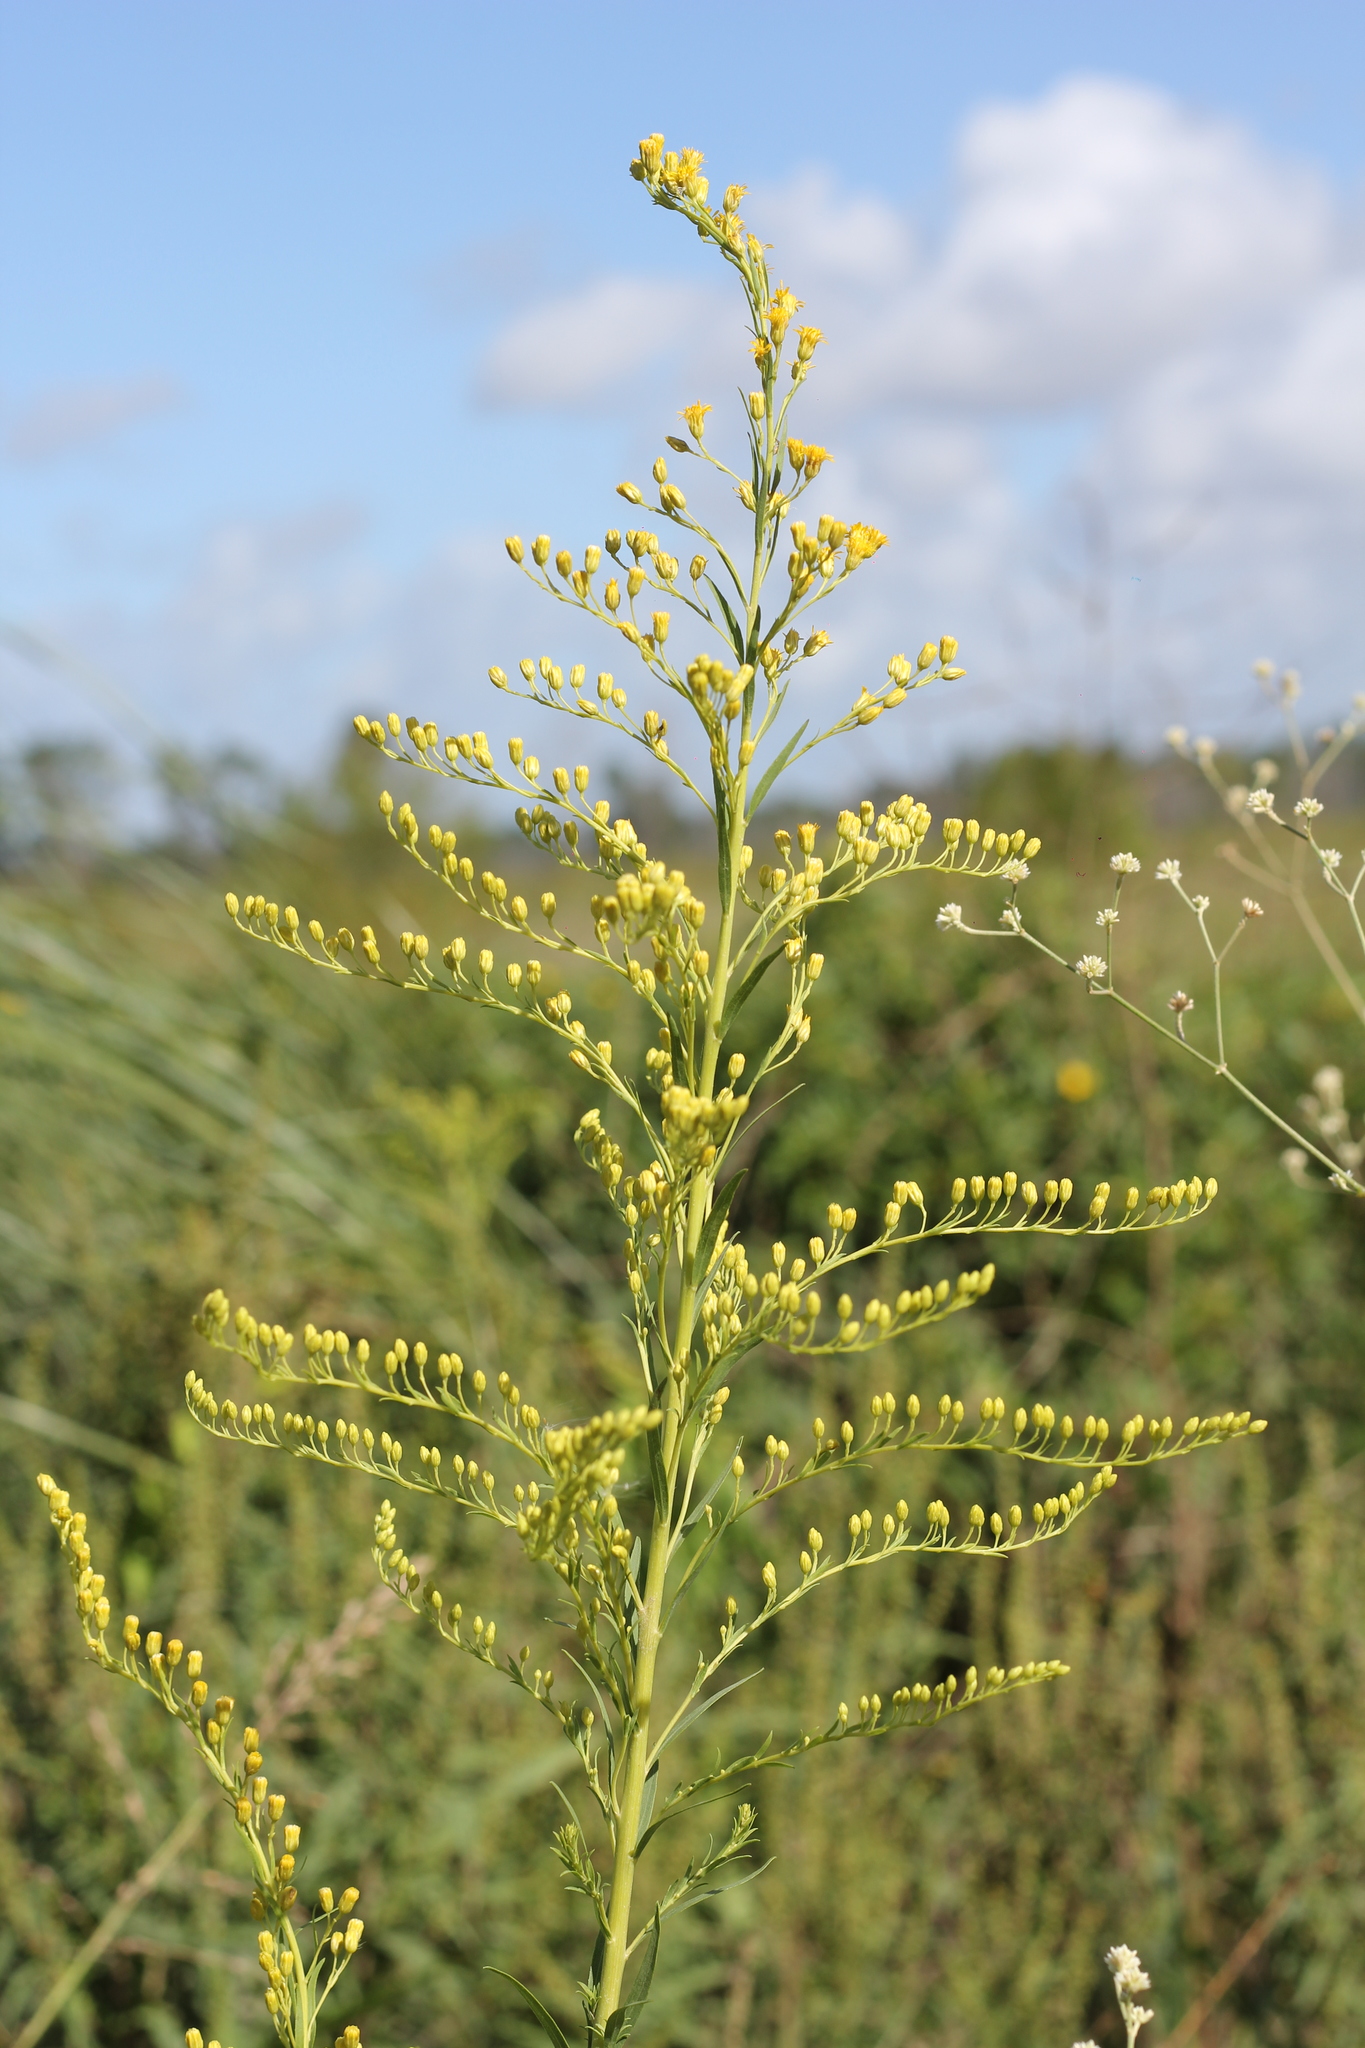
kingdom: Plantae
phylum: Tracheophyta
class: Magnoliopsida
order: Asterales
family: Asteraceae
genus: Solidago
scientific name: Solidago chilensis
